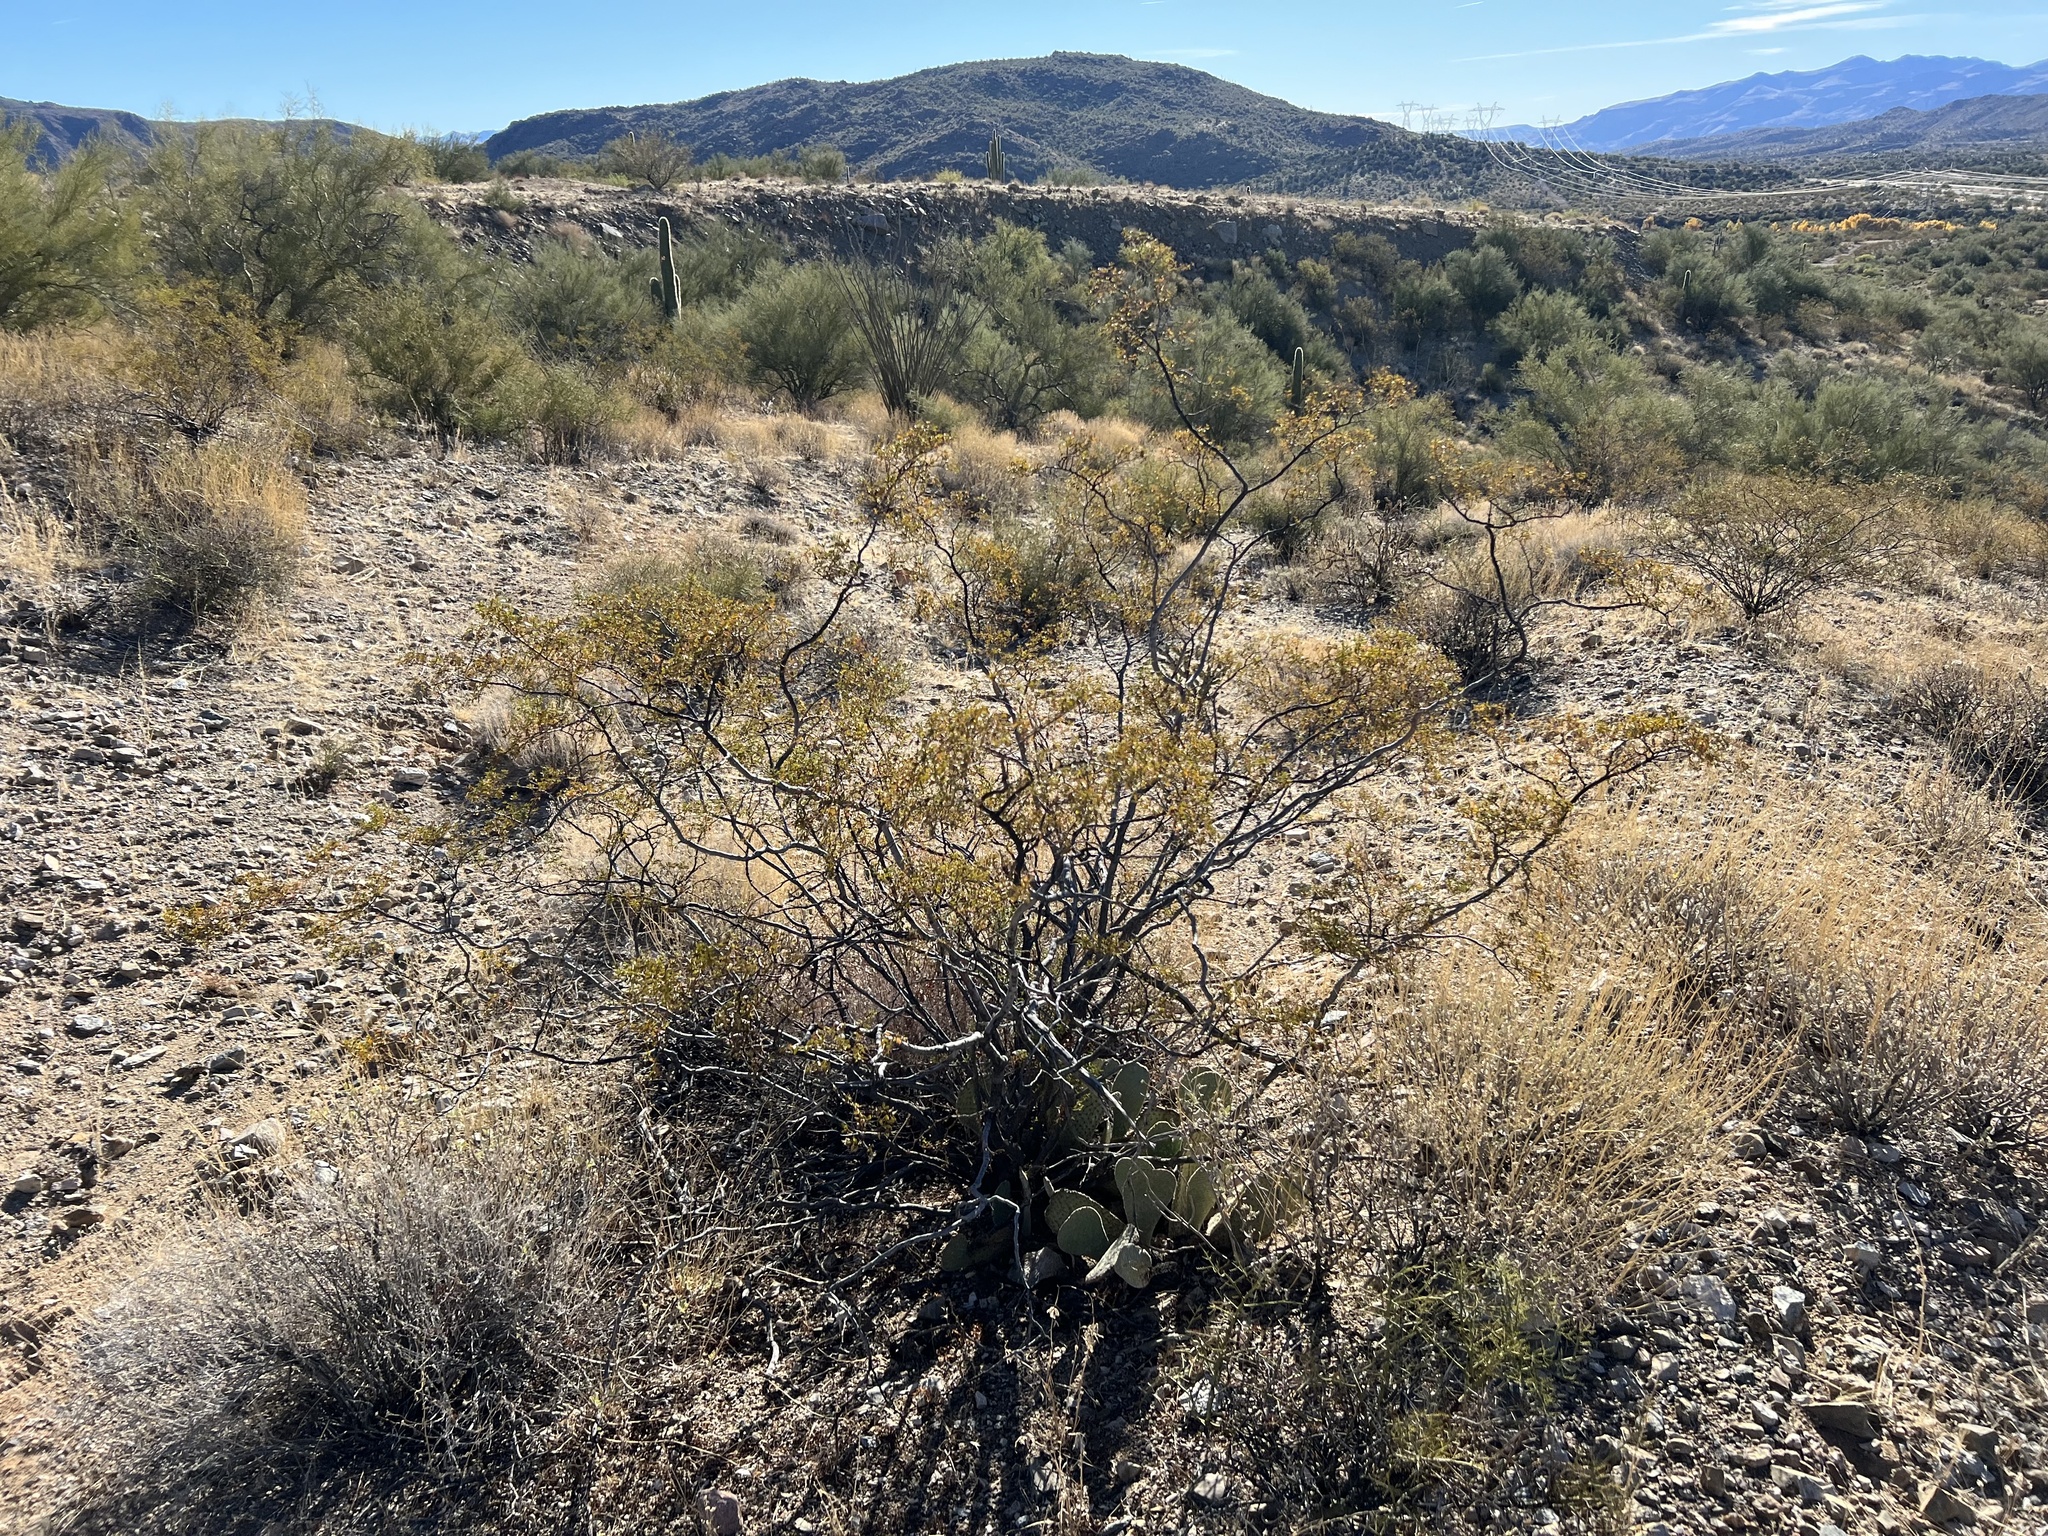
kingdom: Plantae
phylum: Tracheophyta
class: Magnoliopsida
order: Zygophyllales
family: Zygophyllaceae
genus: Larrea
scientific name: Larrea tridentata
